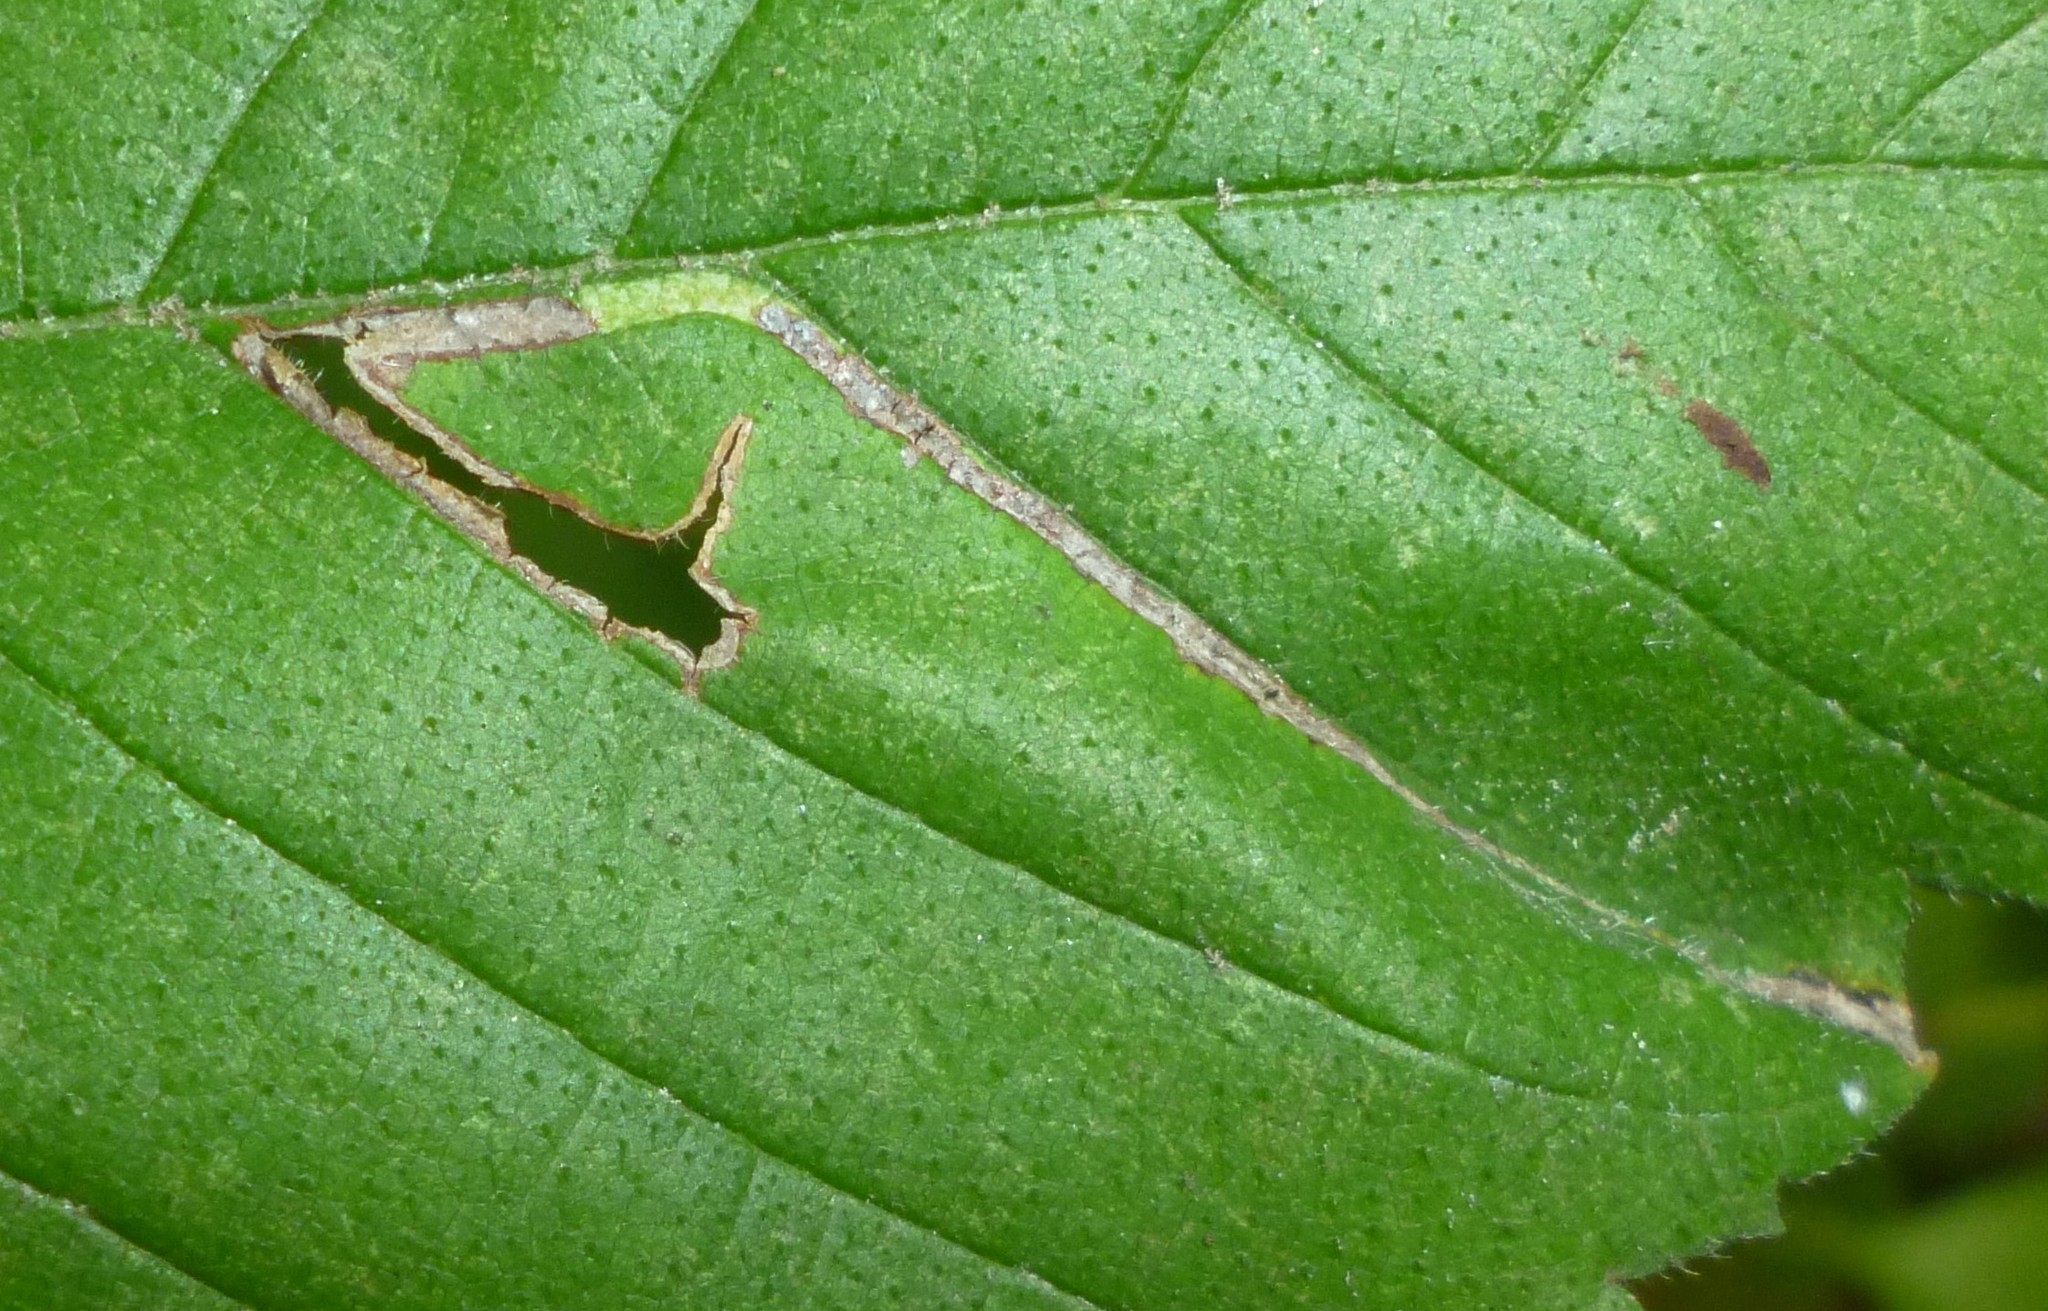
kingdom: Animalia
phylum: Arthropoda
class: Insecta
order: Diptera
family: Agromyzidae
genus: Agromyza
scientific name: Agromyza aristata
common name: Elm agromyzid leafminer
